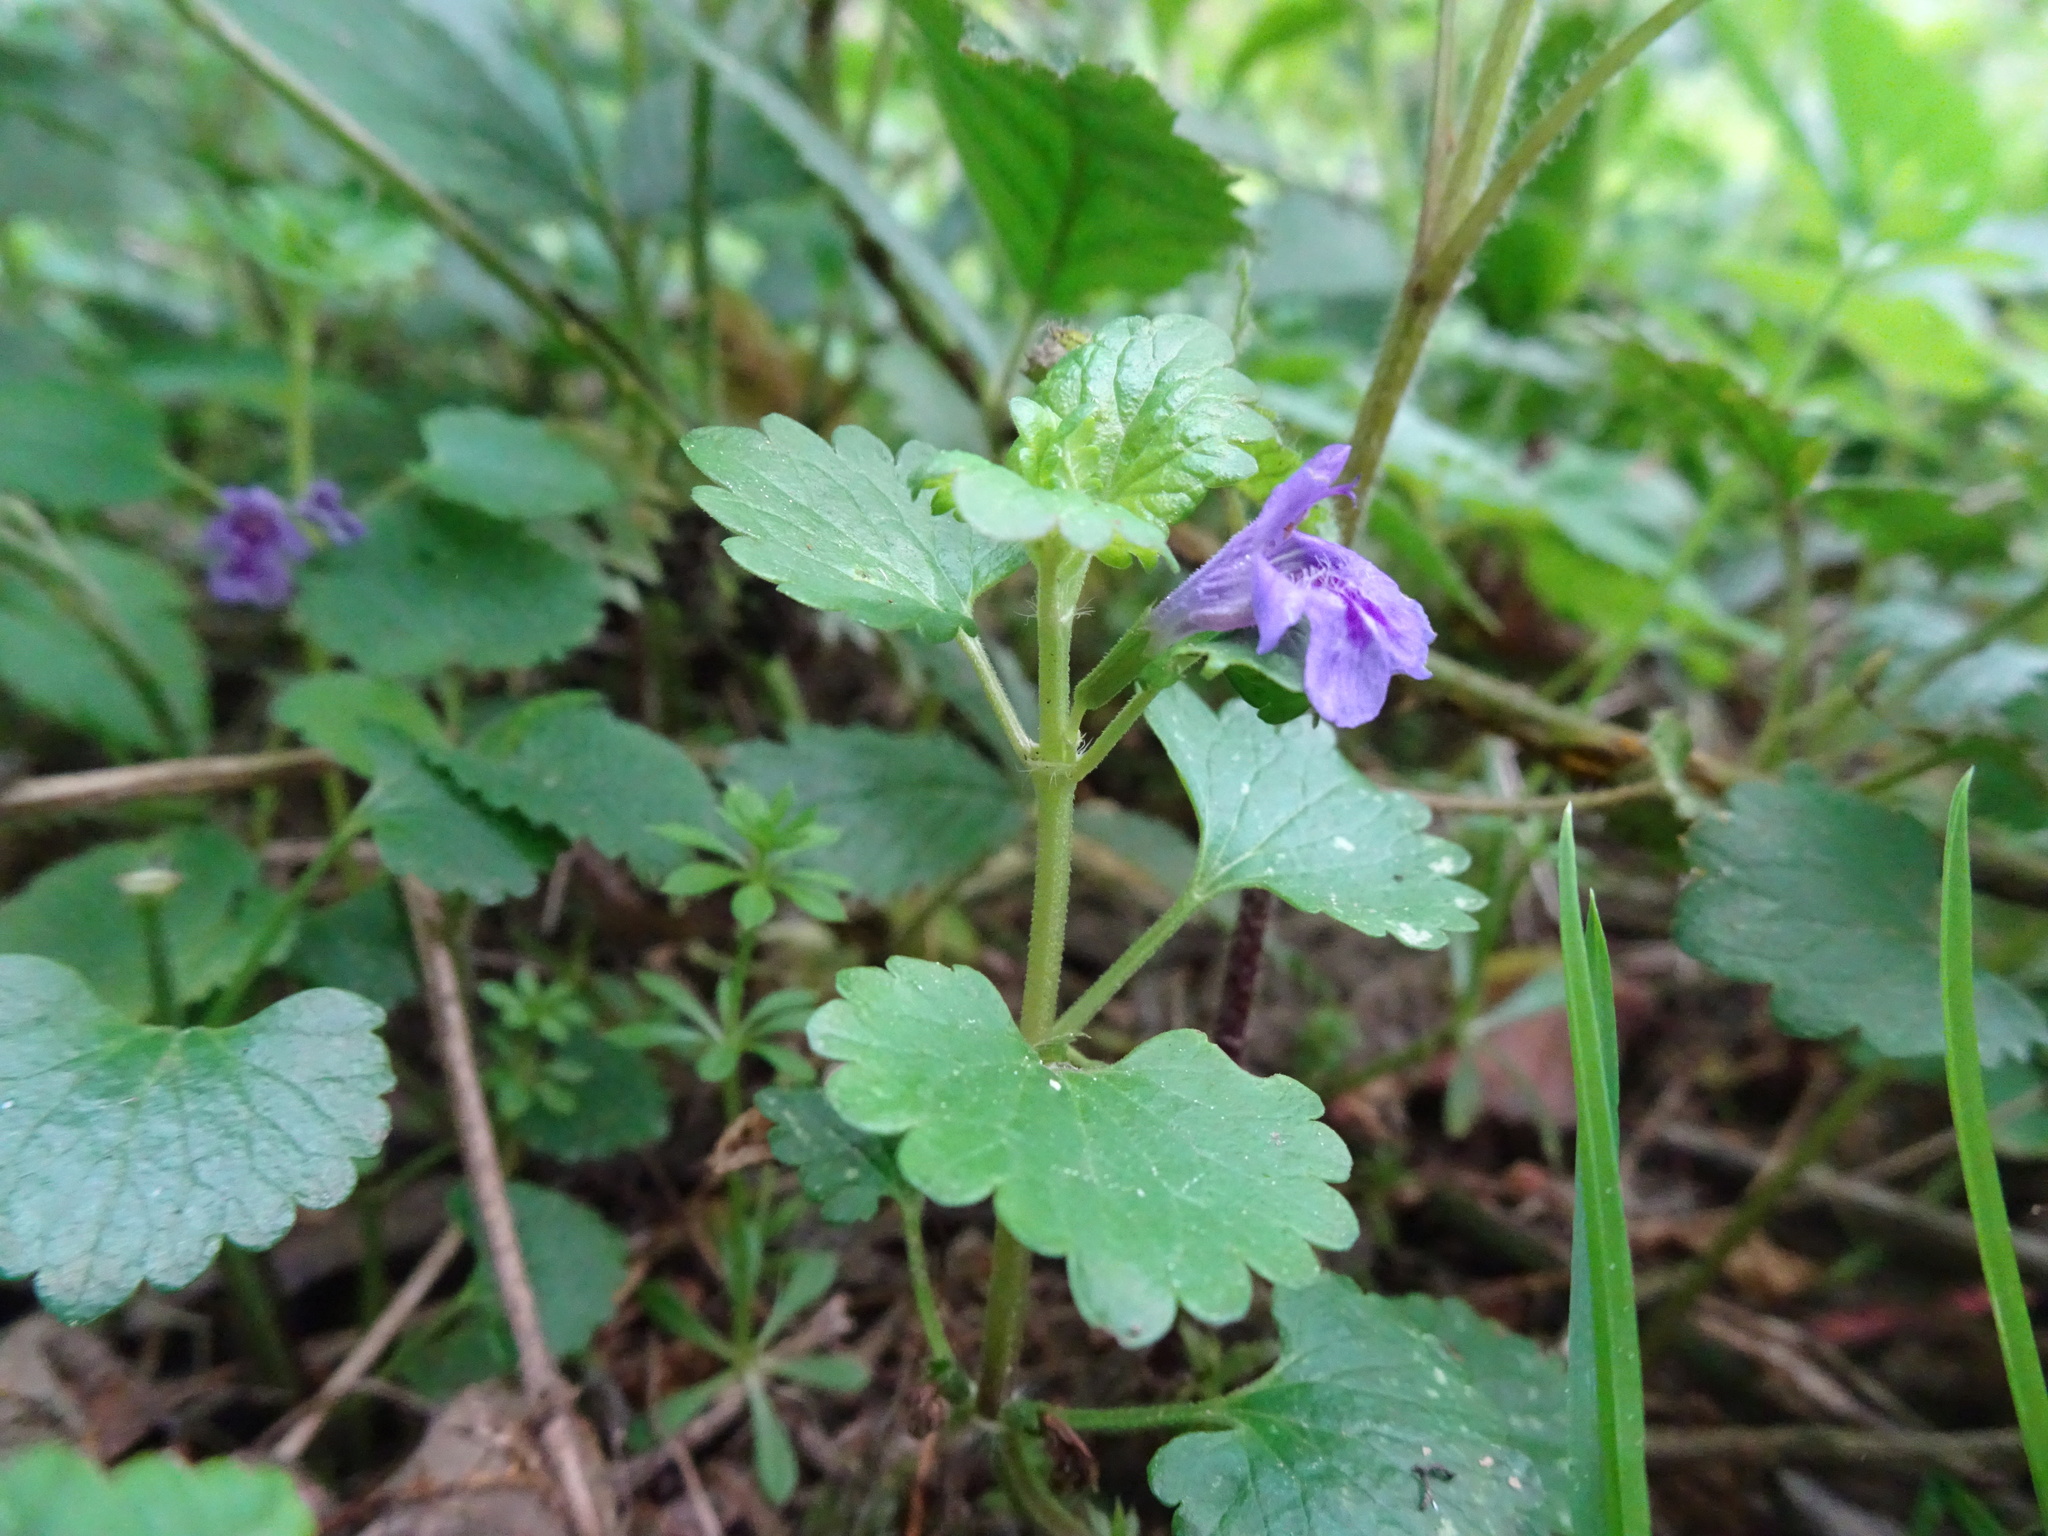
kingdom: Plantae
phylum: Tracheophyta
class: Magnoliopsida
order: Lamiales
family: Lamiaceae
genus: Glechoma
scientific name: Glechoma hederacea
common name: Ground ivy
